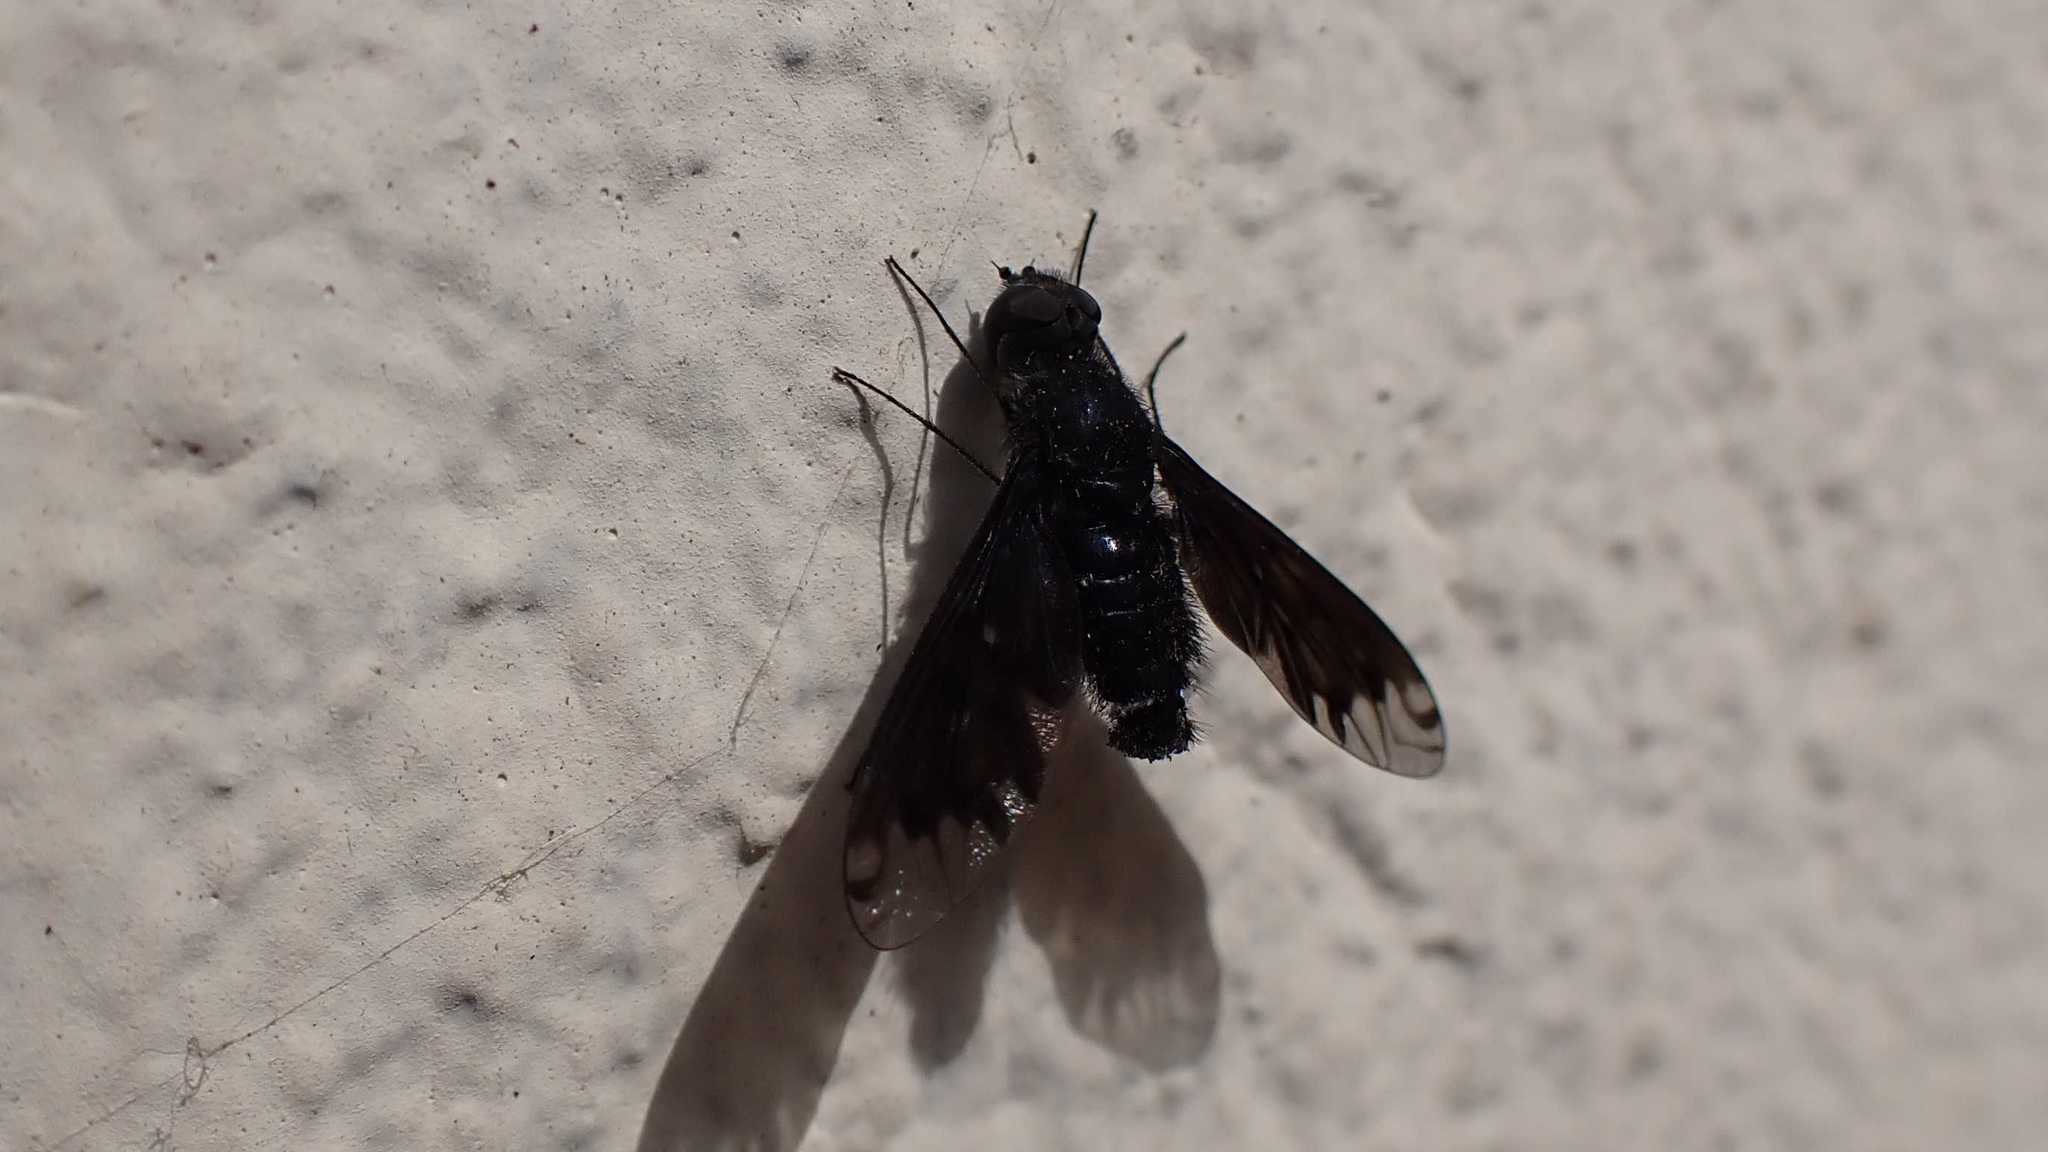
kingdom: Animalia
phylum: Arthropoda
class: Insecta
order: Diptera
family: Bombyliidae
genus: Anthrax
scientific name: Anthrax anthrax
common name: Anthracite bee-fly
